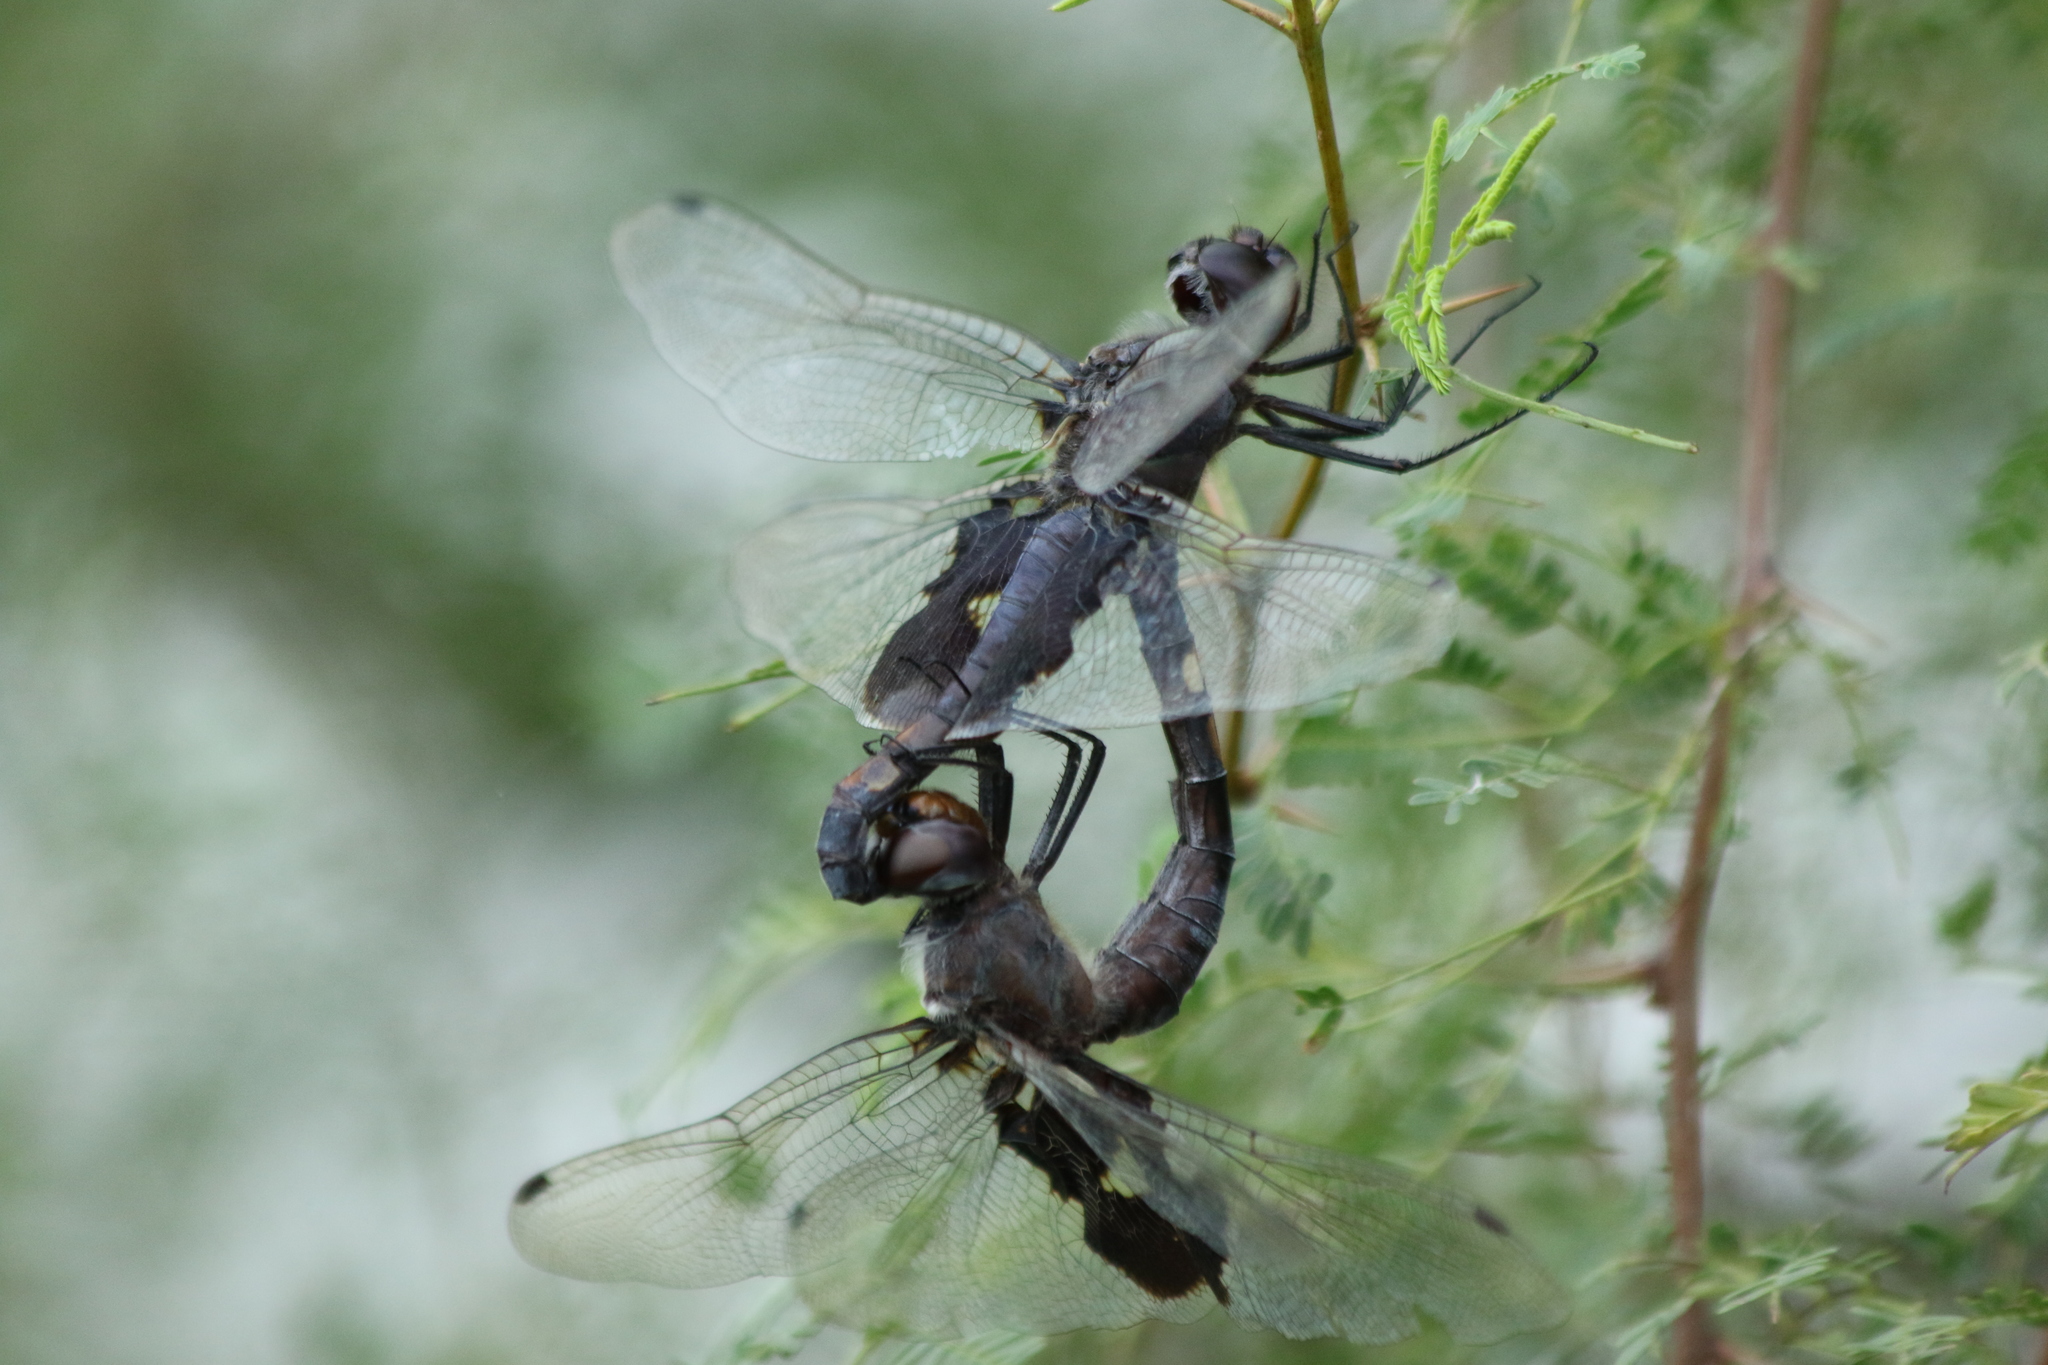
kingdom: Animalia
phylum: Arthropoda
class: Insecta
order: Odonata
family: Libellulidae
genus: Tramea
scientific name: Tramea lacerata
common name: Black saddlebags
